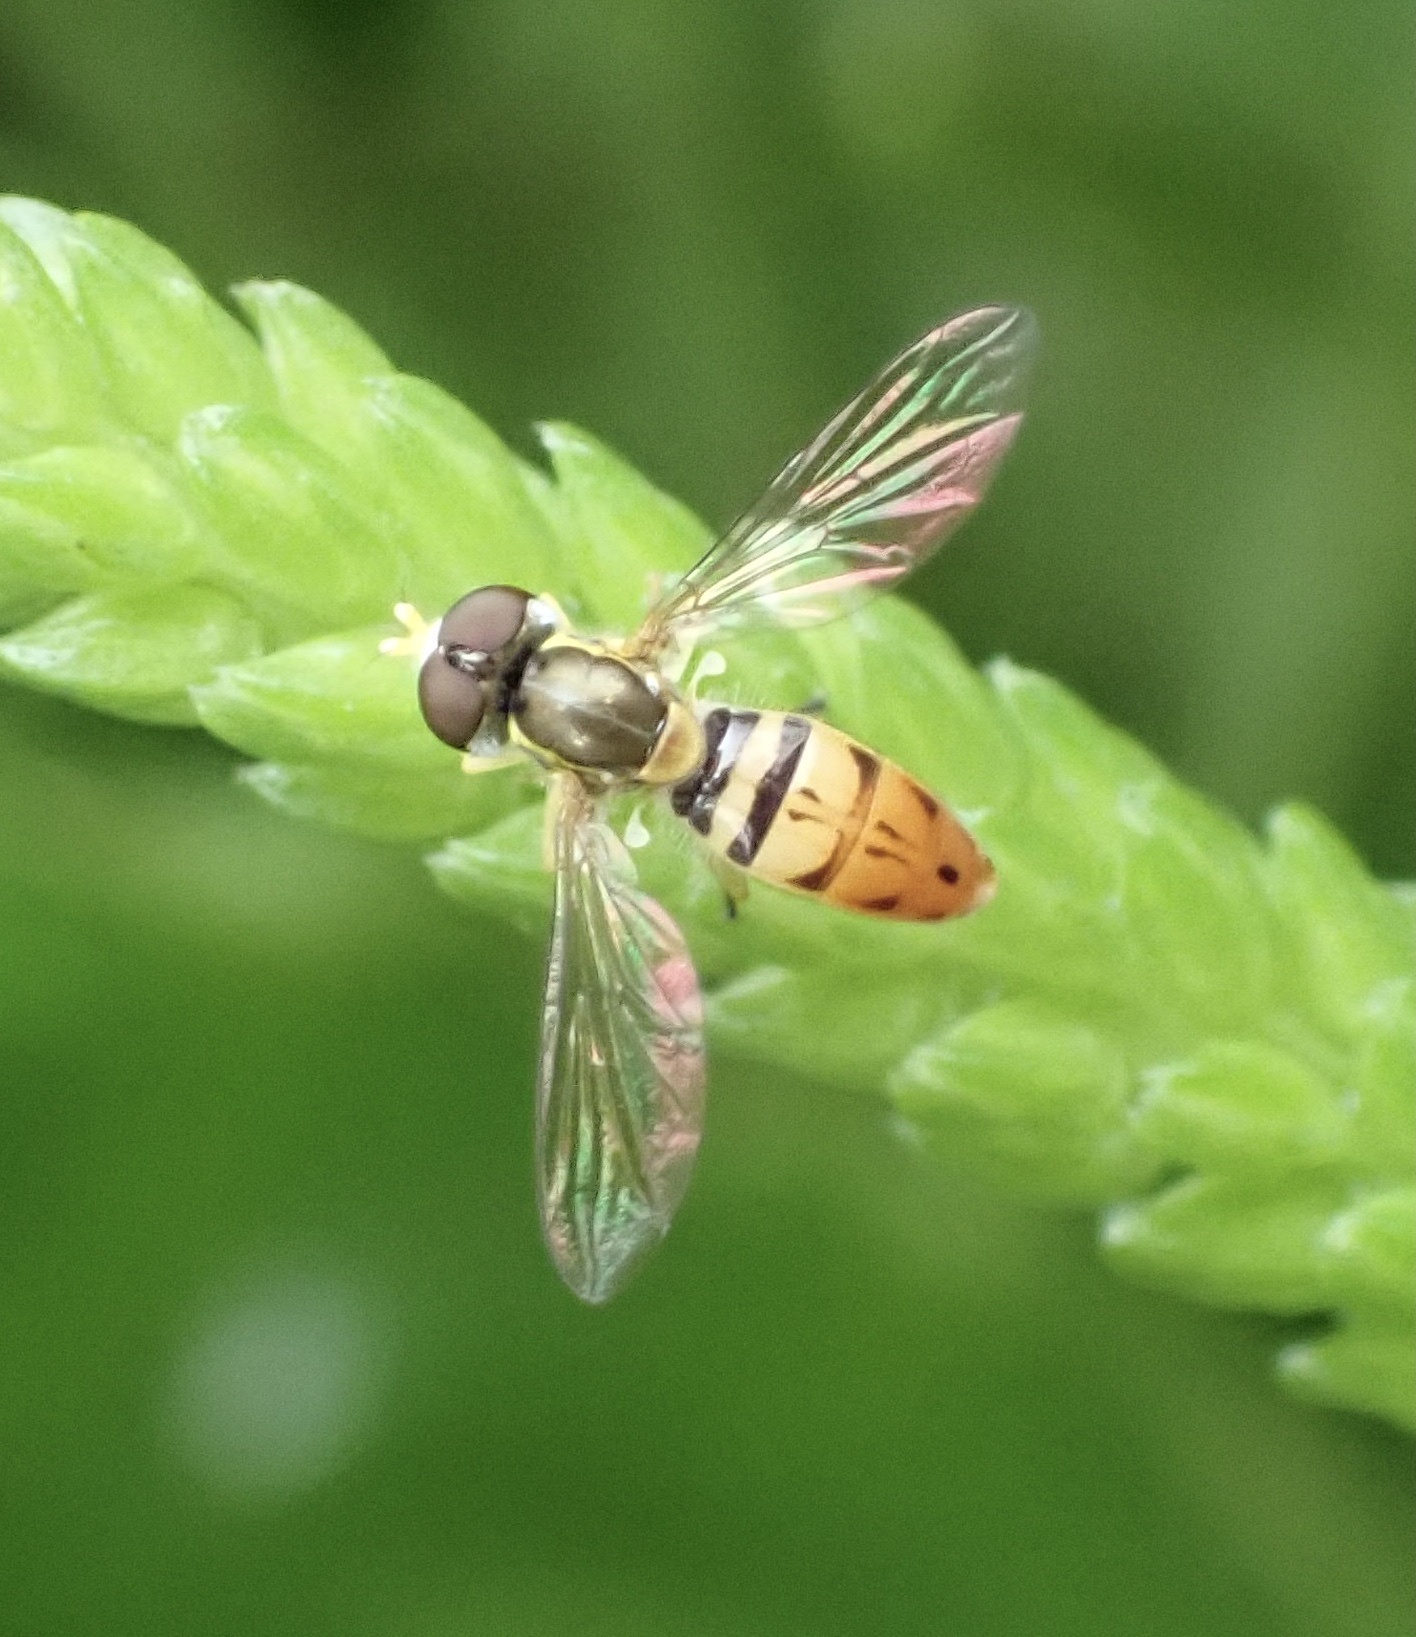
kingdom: Animalia
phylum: Arthropoda
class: Insecta
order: Diptera
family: Syrphidae
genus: Toxomerus
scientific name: Toxomerus marginatus
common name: Syrphid fly
